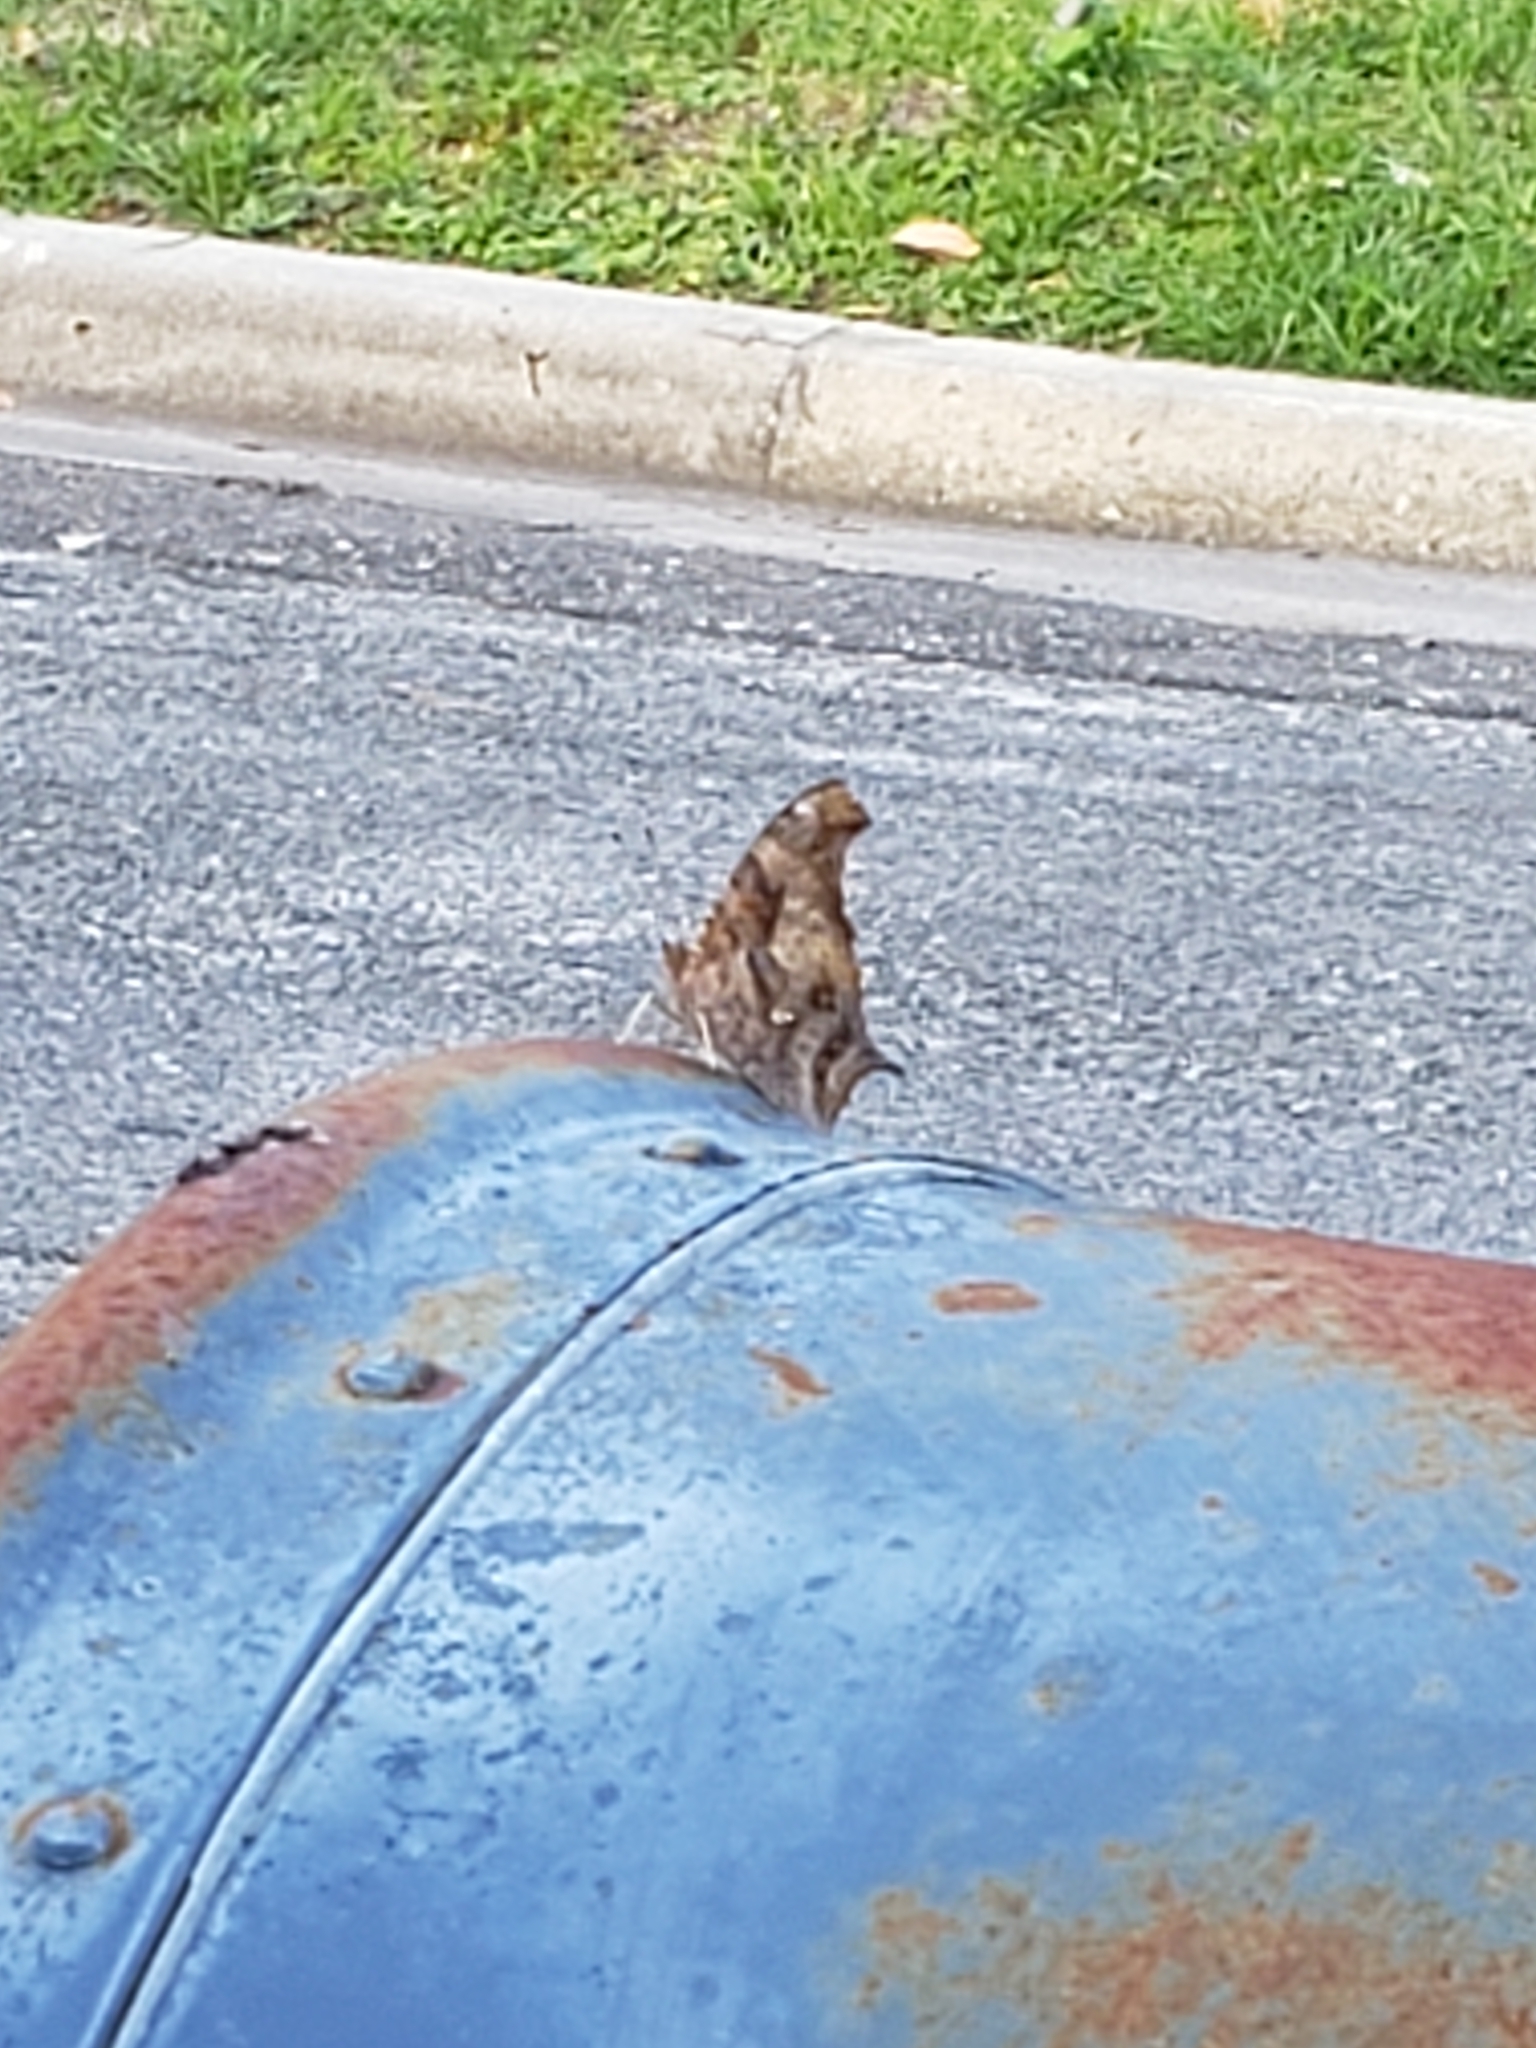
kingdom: Animalia
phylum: Arthropoda
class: Insecta
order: Lepidoptera
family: Nymphalidae
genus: Polygonia
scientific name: Polygonia interrogationis
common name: Question mark
